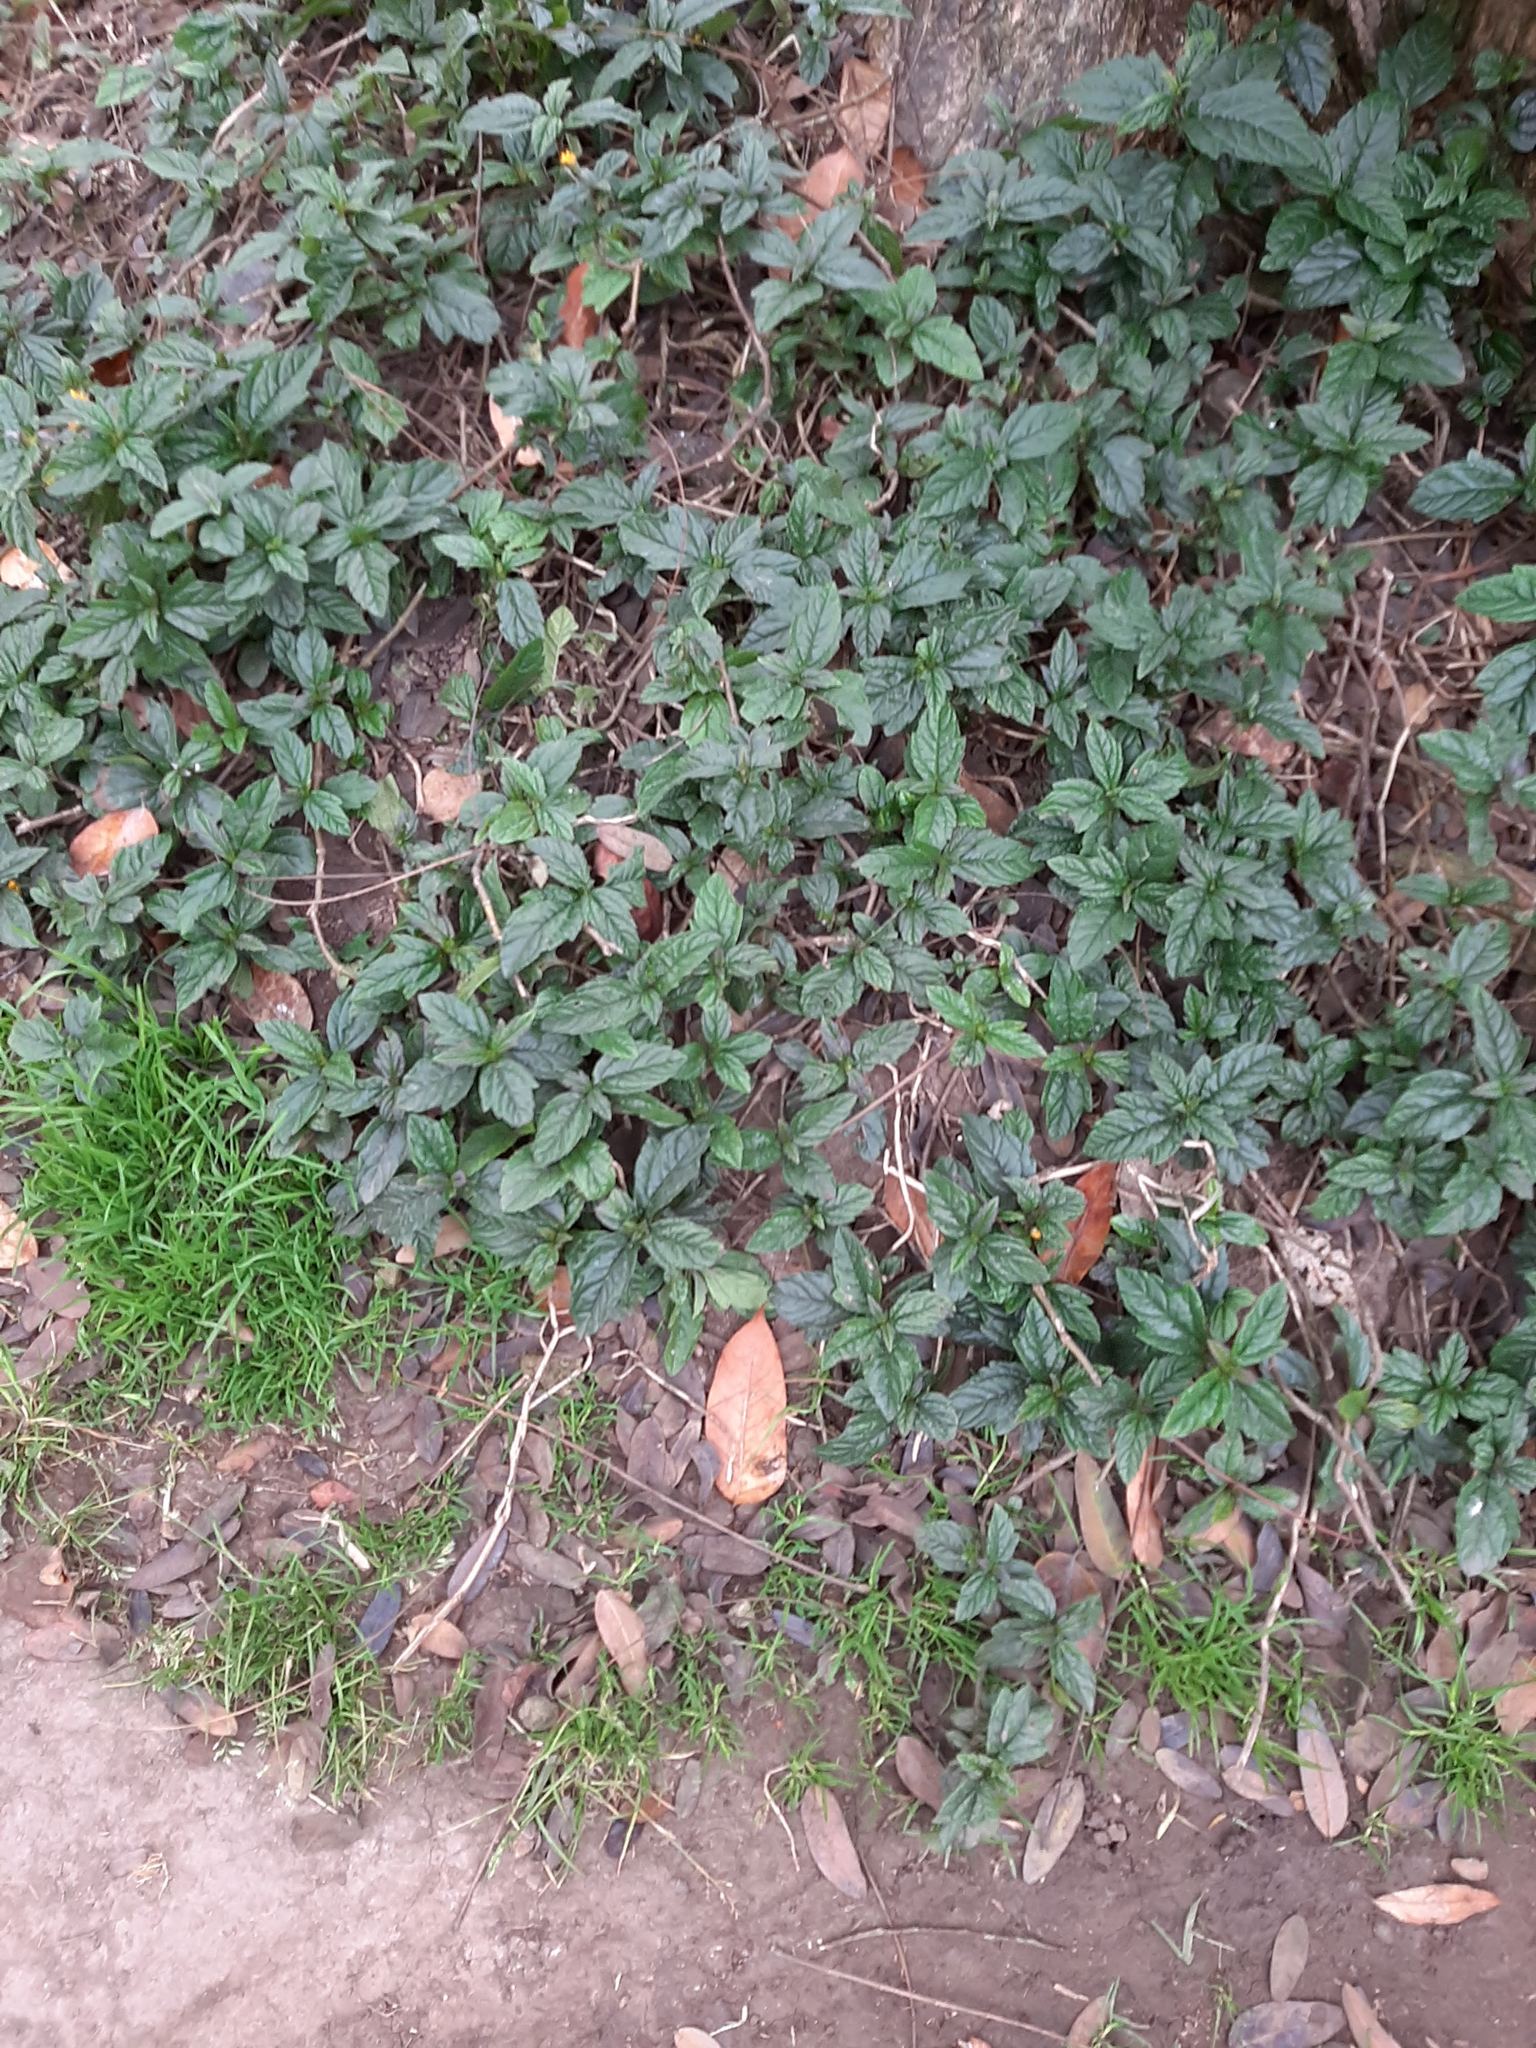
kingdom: Plantae
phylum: Tracheophyta
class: Magnoliopsida
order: Asterales
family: Asteraceae
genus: Sphagneticola
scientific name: Sphagneticola trilobata
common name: Bay biscayne creeping-oxeye
